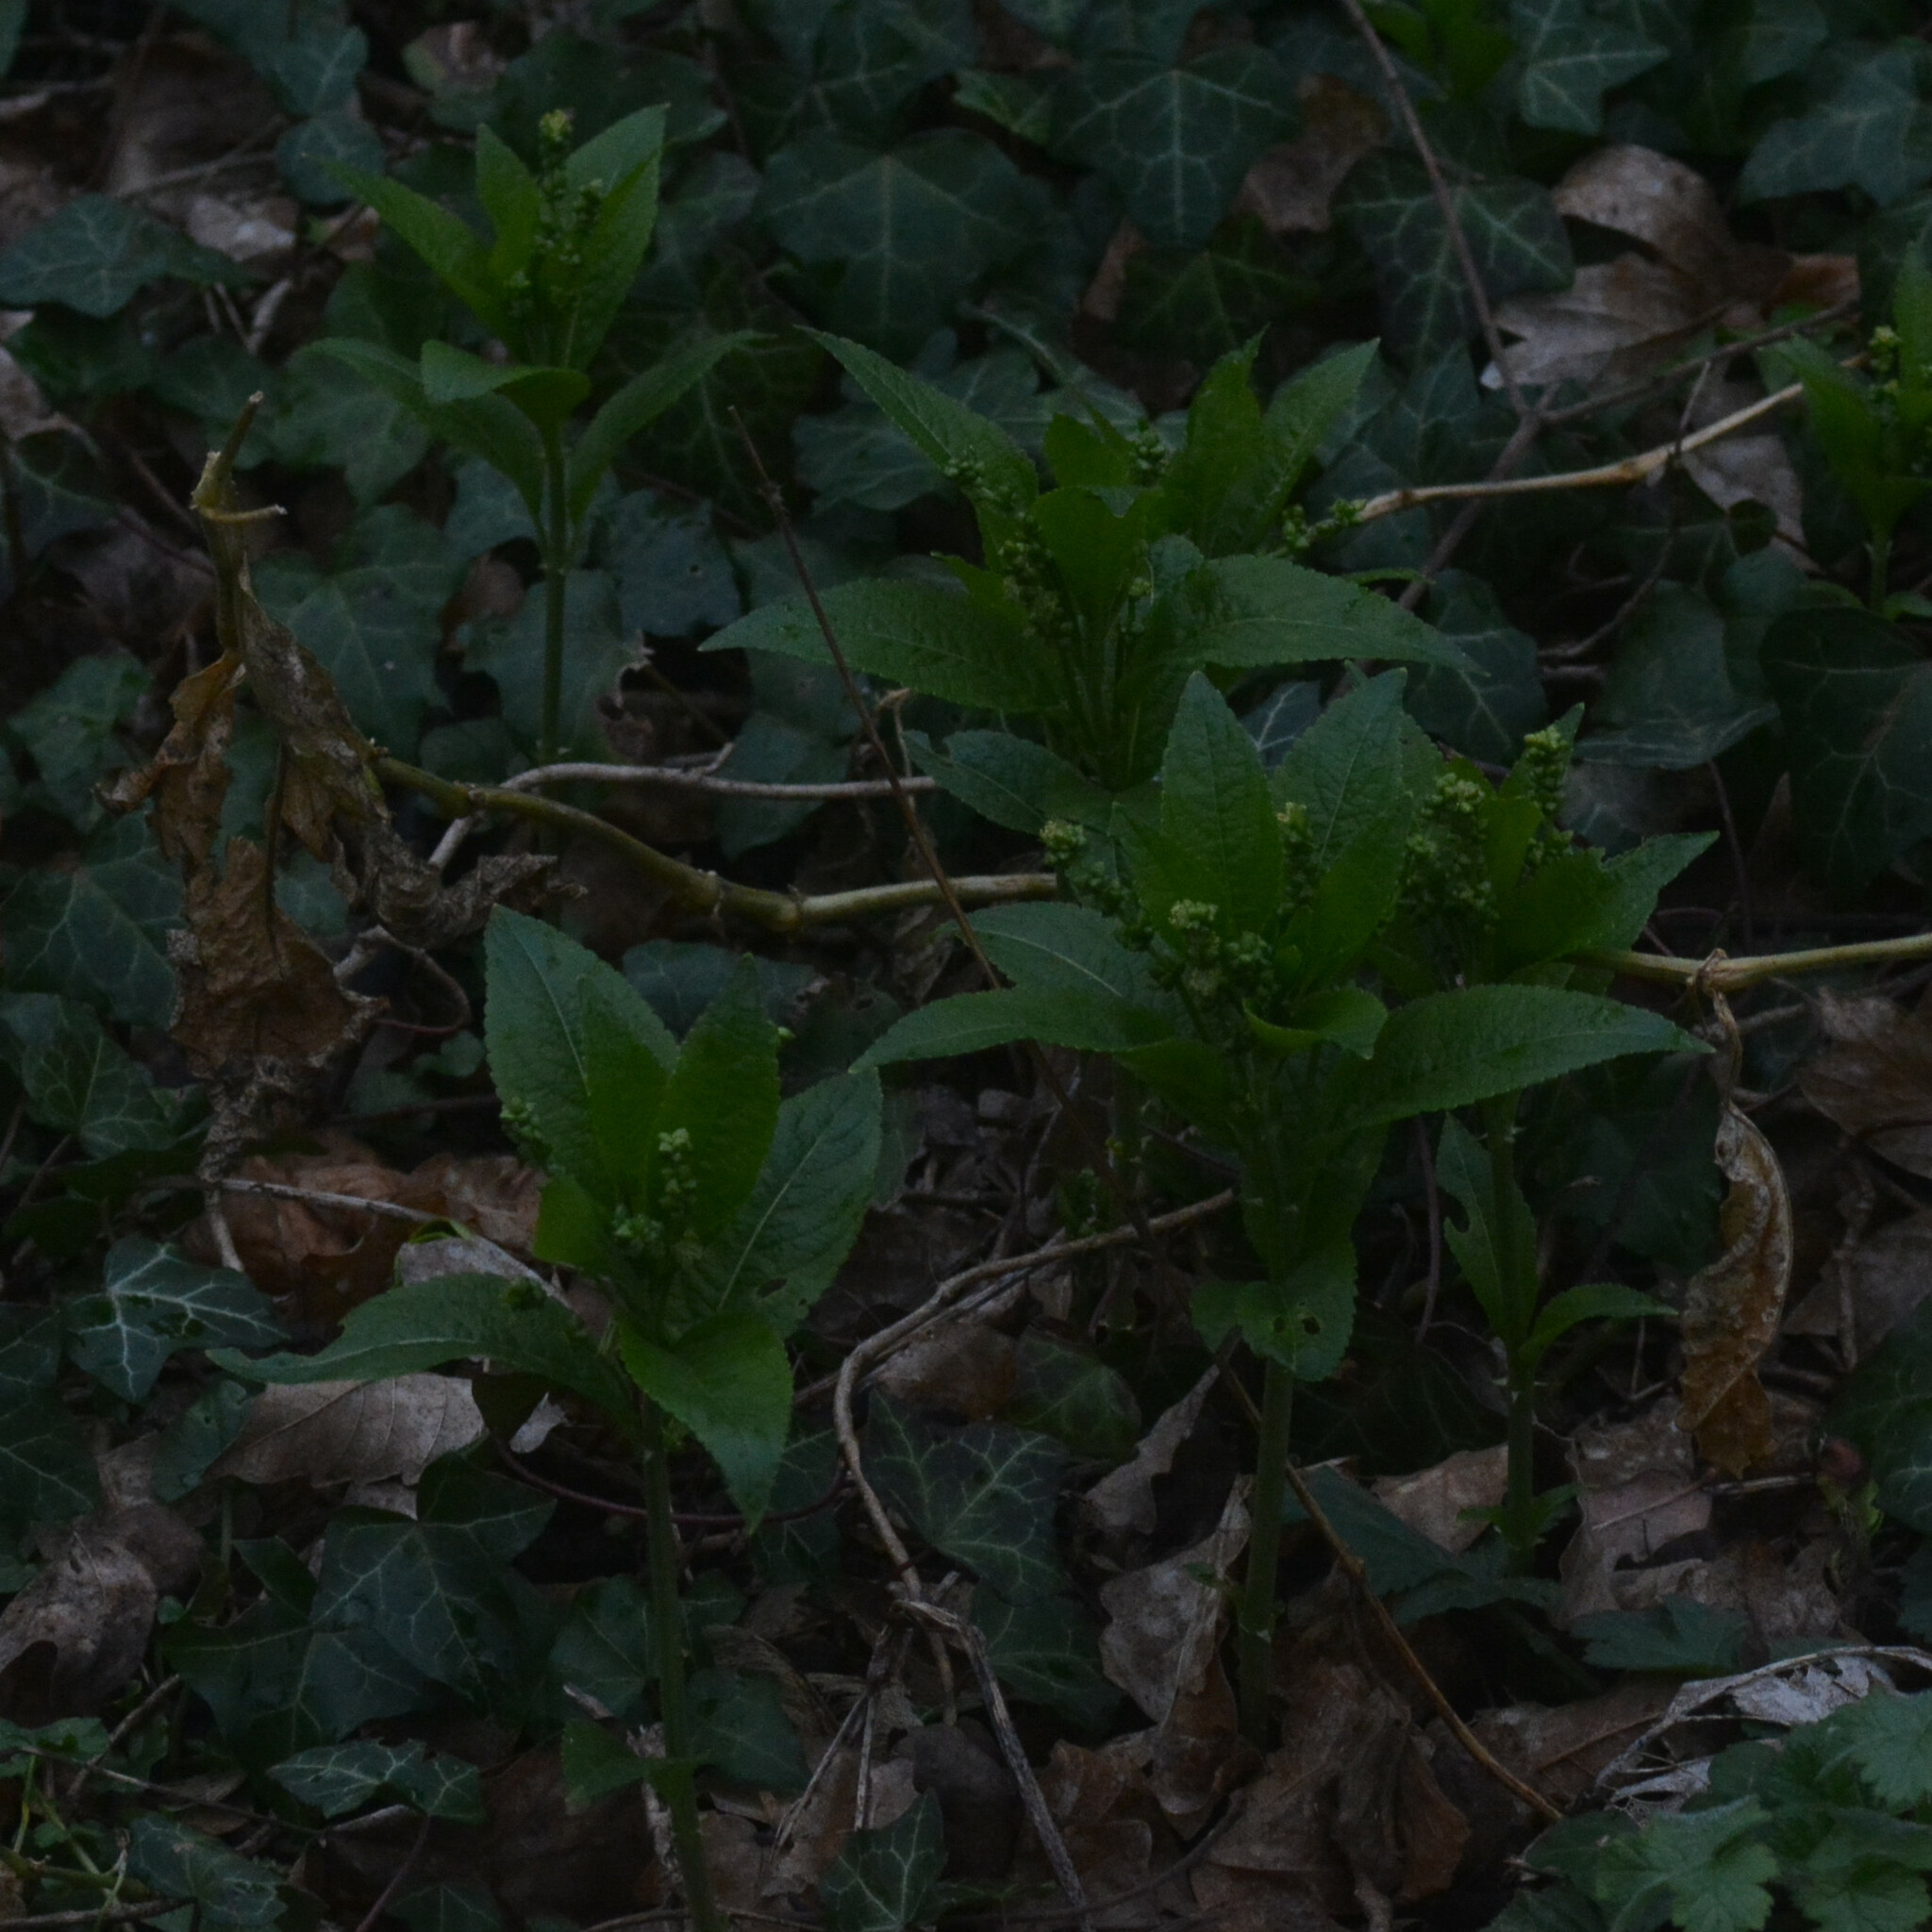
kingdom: Plantae
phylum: Tracheophyta
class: Magnoliopsida
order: Malpighiales
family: Euphorbiaceae
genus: Mercurialis
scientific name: Mercurialis perennis
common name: Dog mercury
